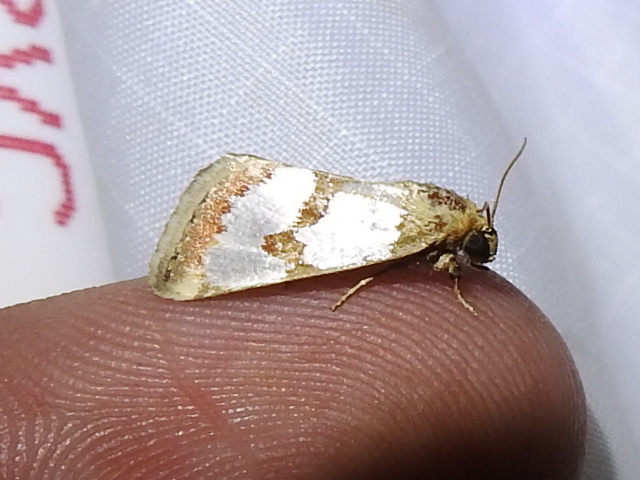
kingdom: Animalia
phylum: Arthropoda
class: Insecta
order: Lepidoptera
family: Noctuidae
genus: Schinia
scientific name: Schinia chrysellus
